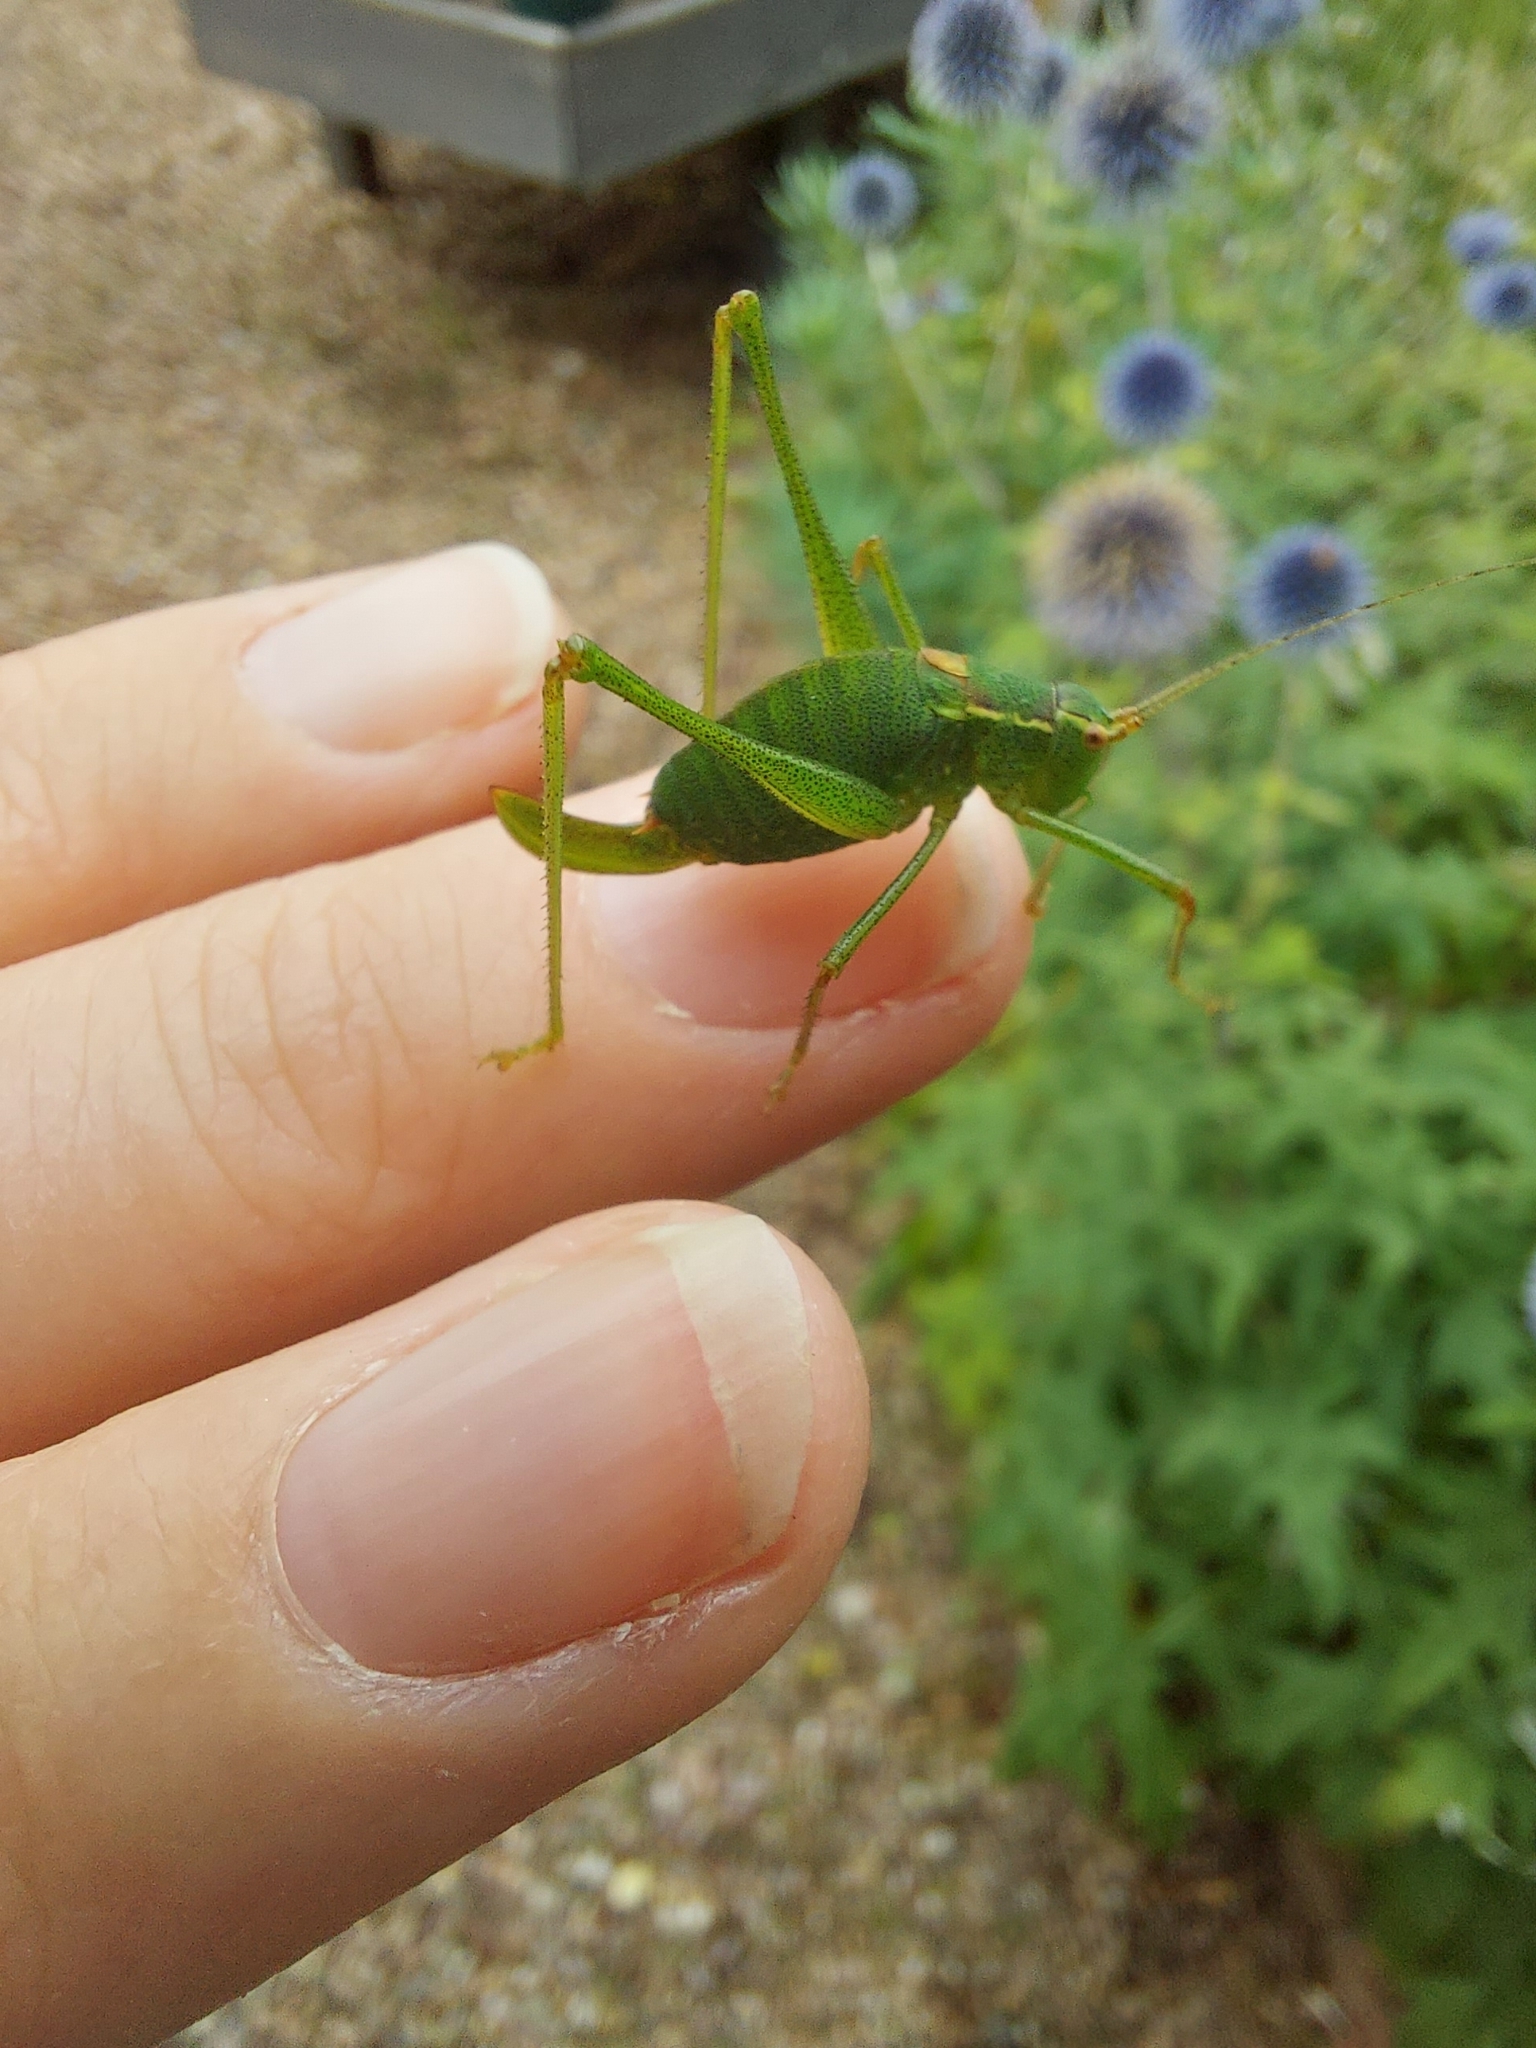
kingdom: Animalia
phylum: Arthropoda
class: Insecta
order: Orthoptera
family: Tettigoniidae
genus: Leptophyes
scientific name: Leptophyes punctatissima
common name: Speckled bush-cricket
